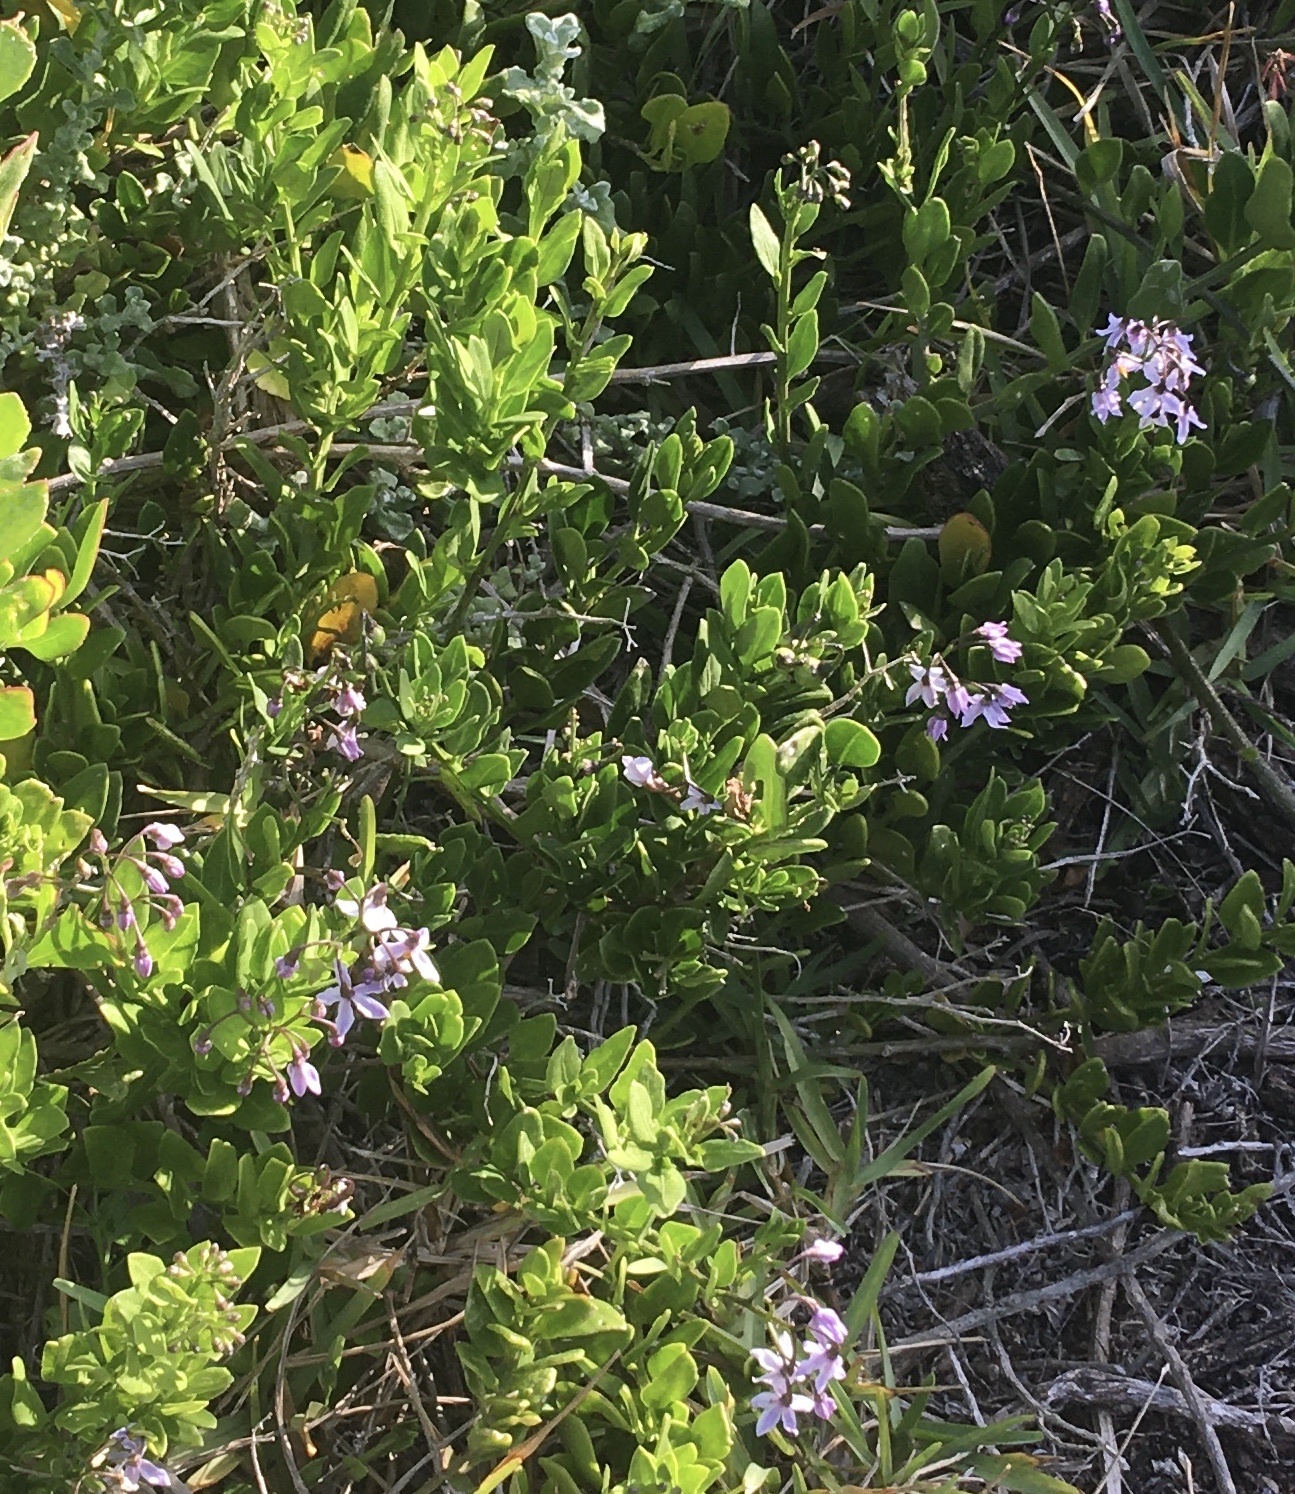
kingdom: Plantae
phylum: Tracheophyta
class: Magnoliopsida
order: Solanales
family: Solanaceae
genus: Solanum
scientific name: Solanum africanum
